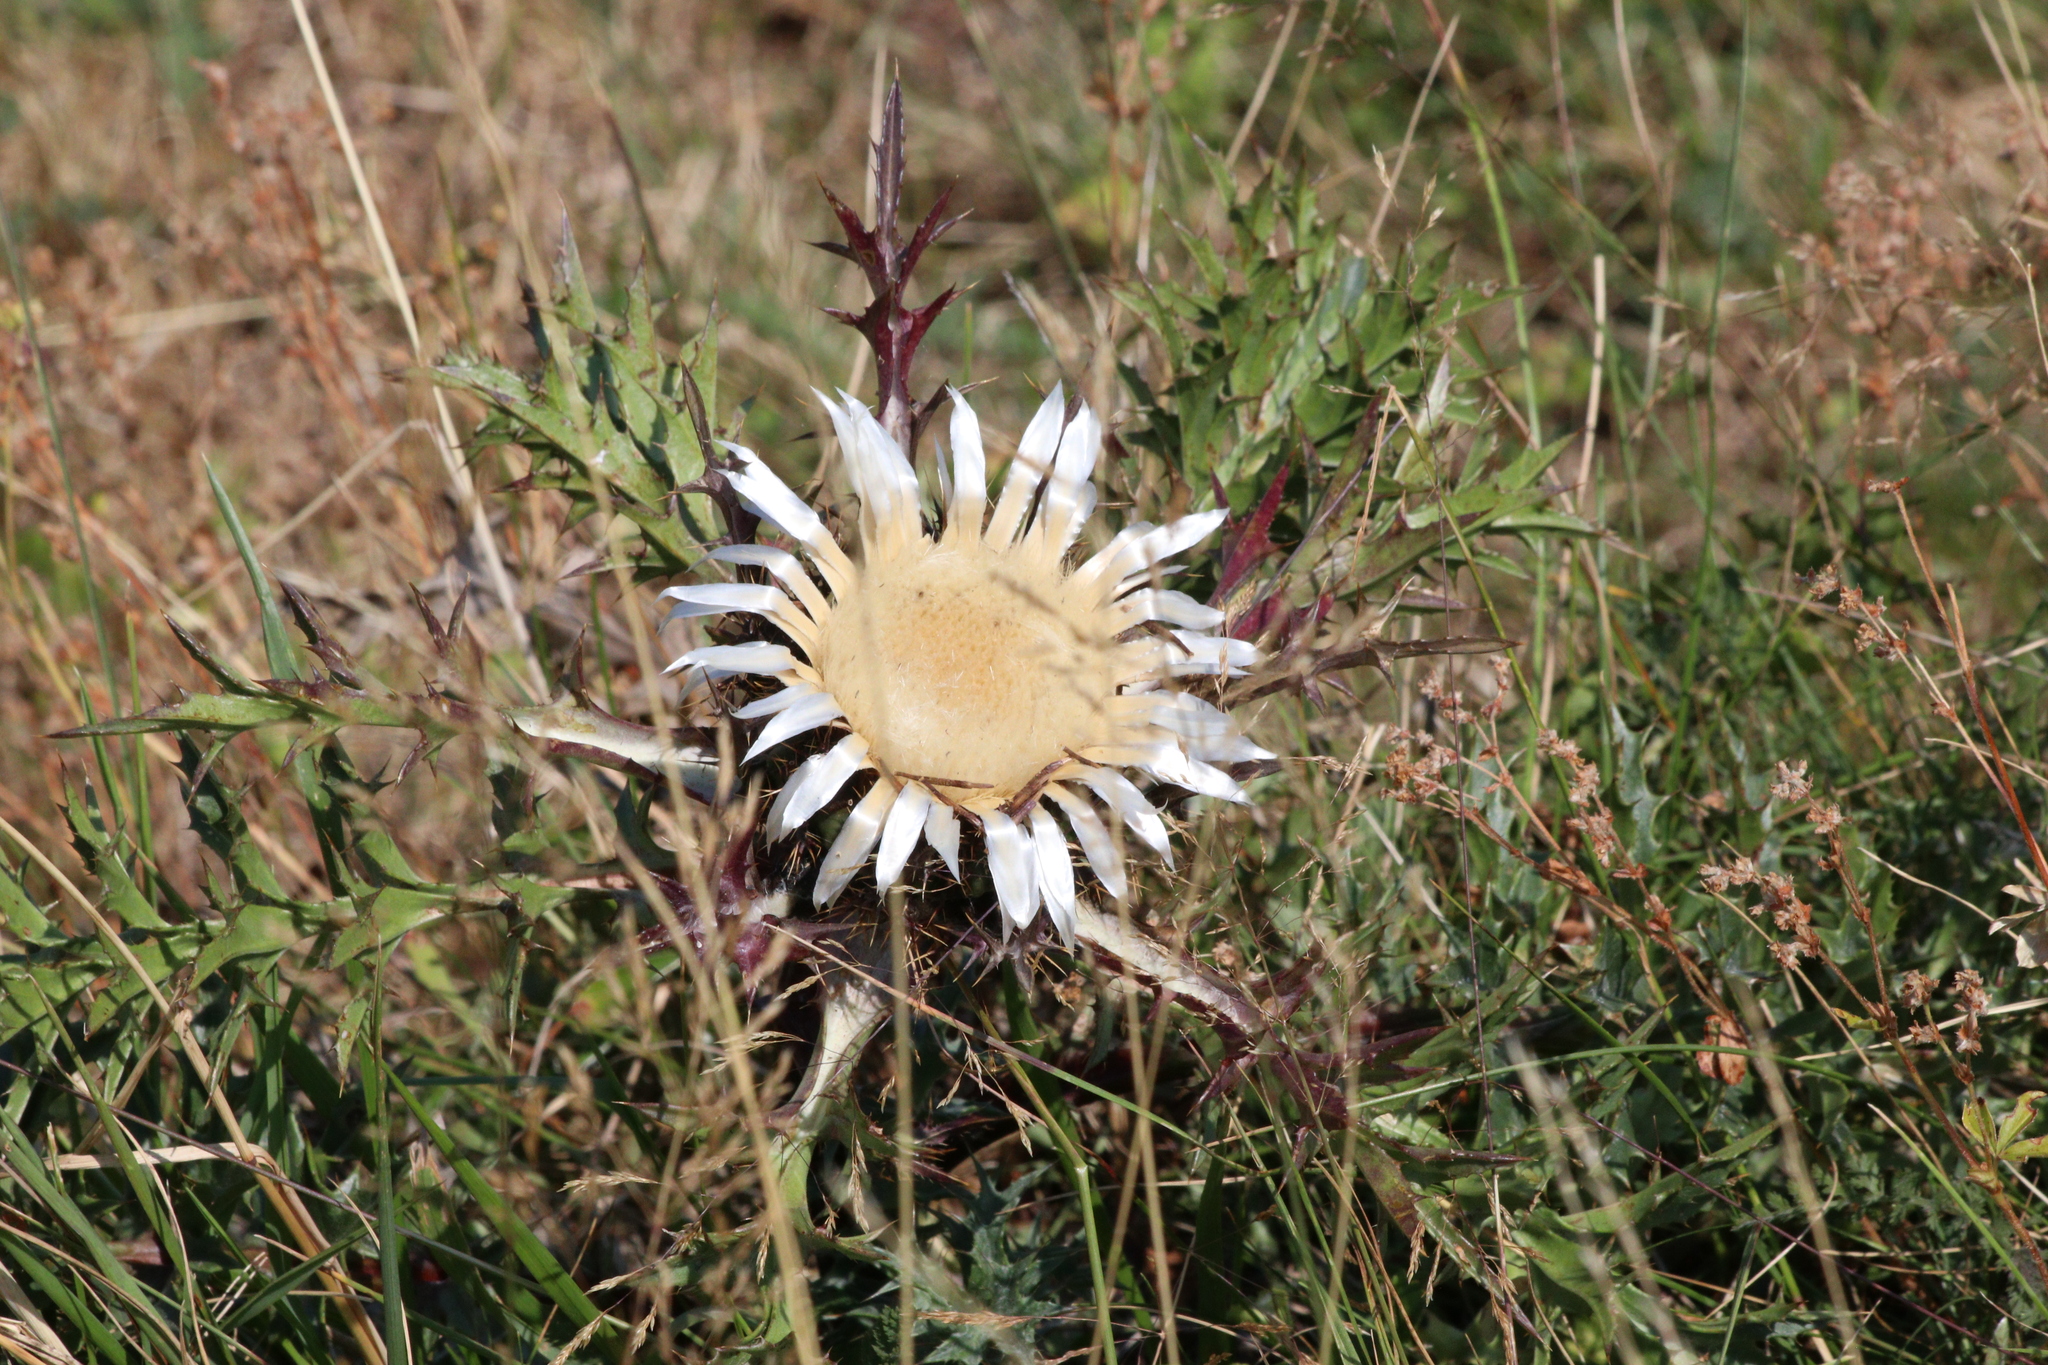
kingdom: Plantae
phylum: Tracheophyta
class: Magnoliopsida
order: Asterales
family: Asteraceae
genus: Carlina
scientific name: Carlina acaulis
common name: Stemless carline thistle
